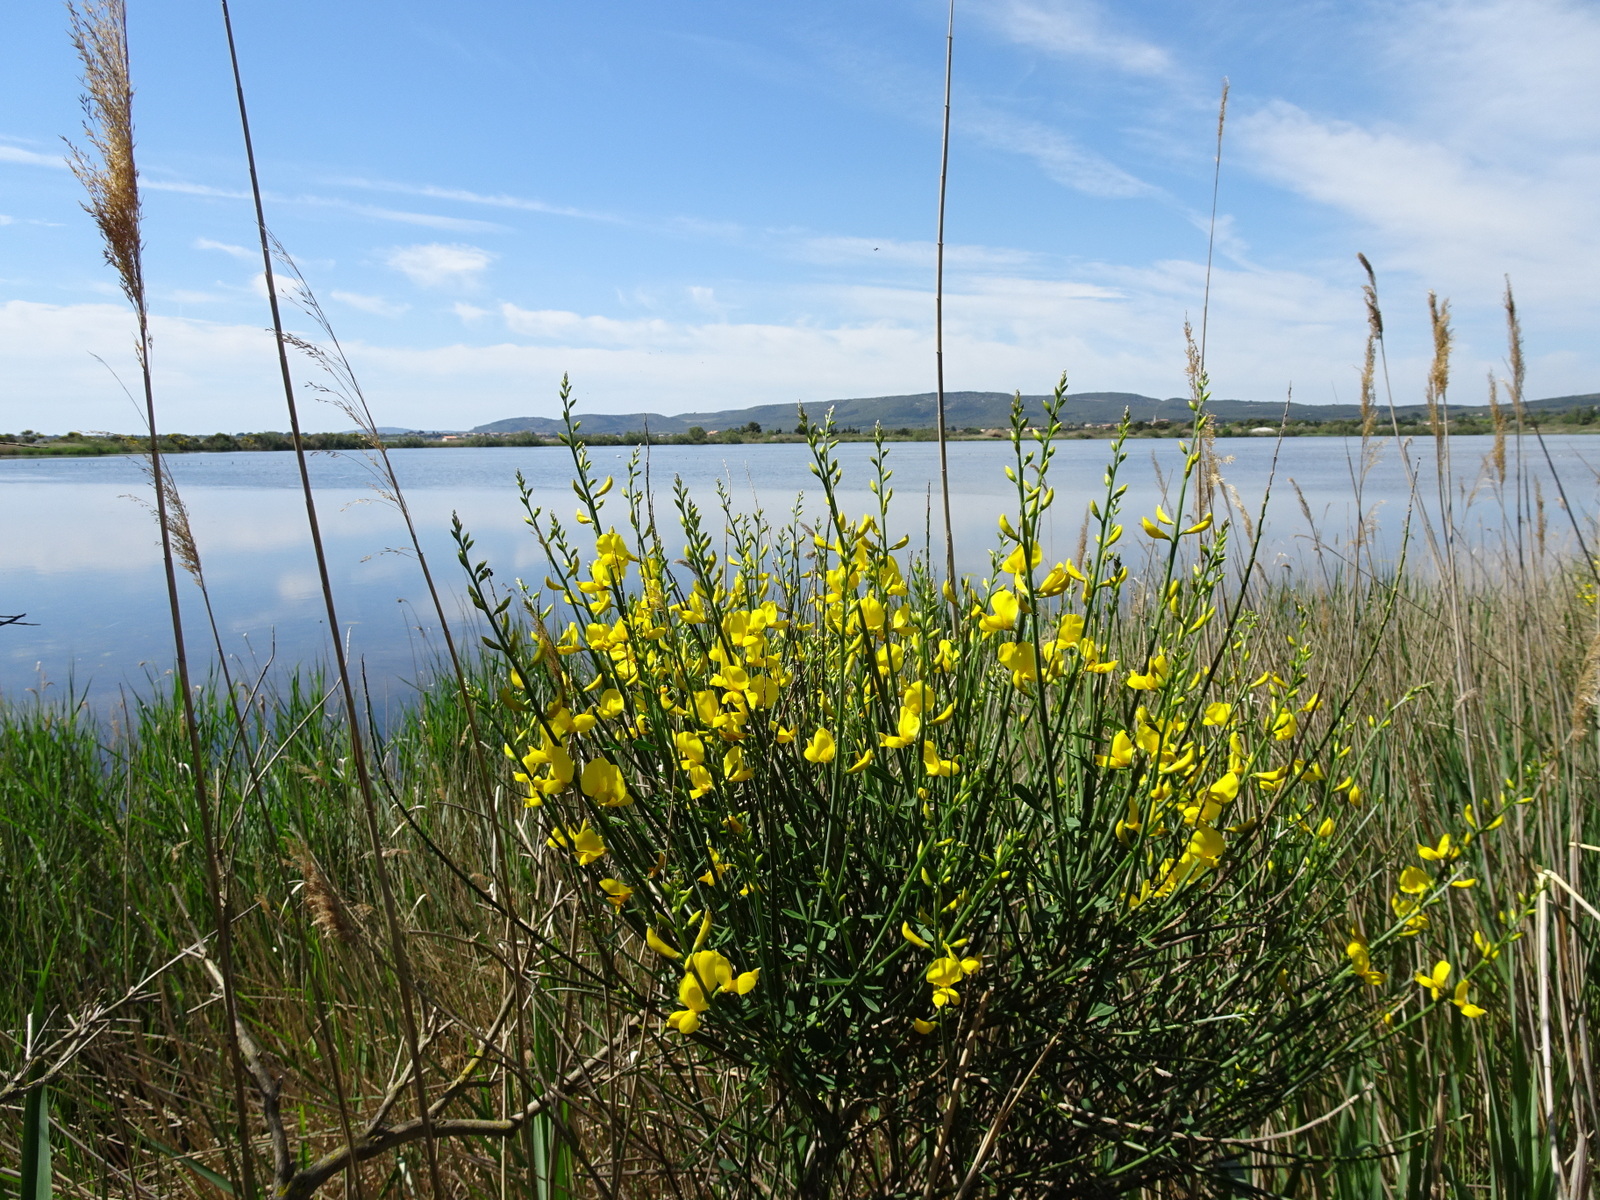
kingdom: Plantae
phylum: Tracheophyta
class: Magnoliopsida
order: Fabales
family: Fabaceae
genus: Spartium
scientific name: Spartium junceum
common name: Spanish broom
